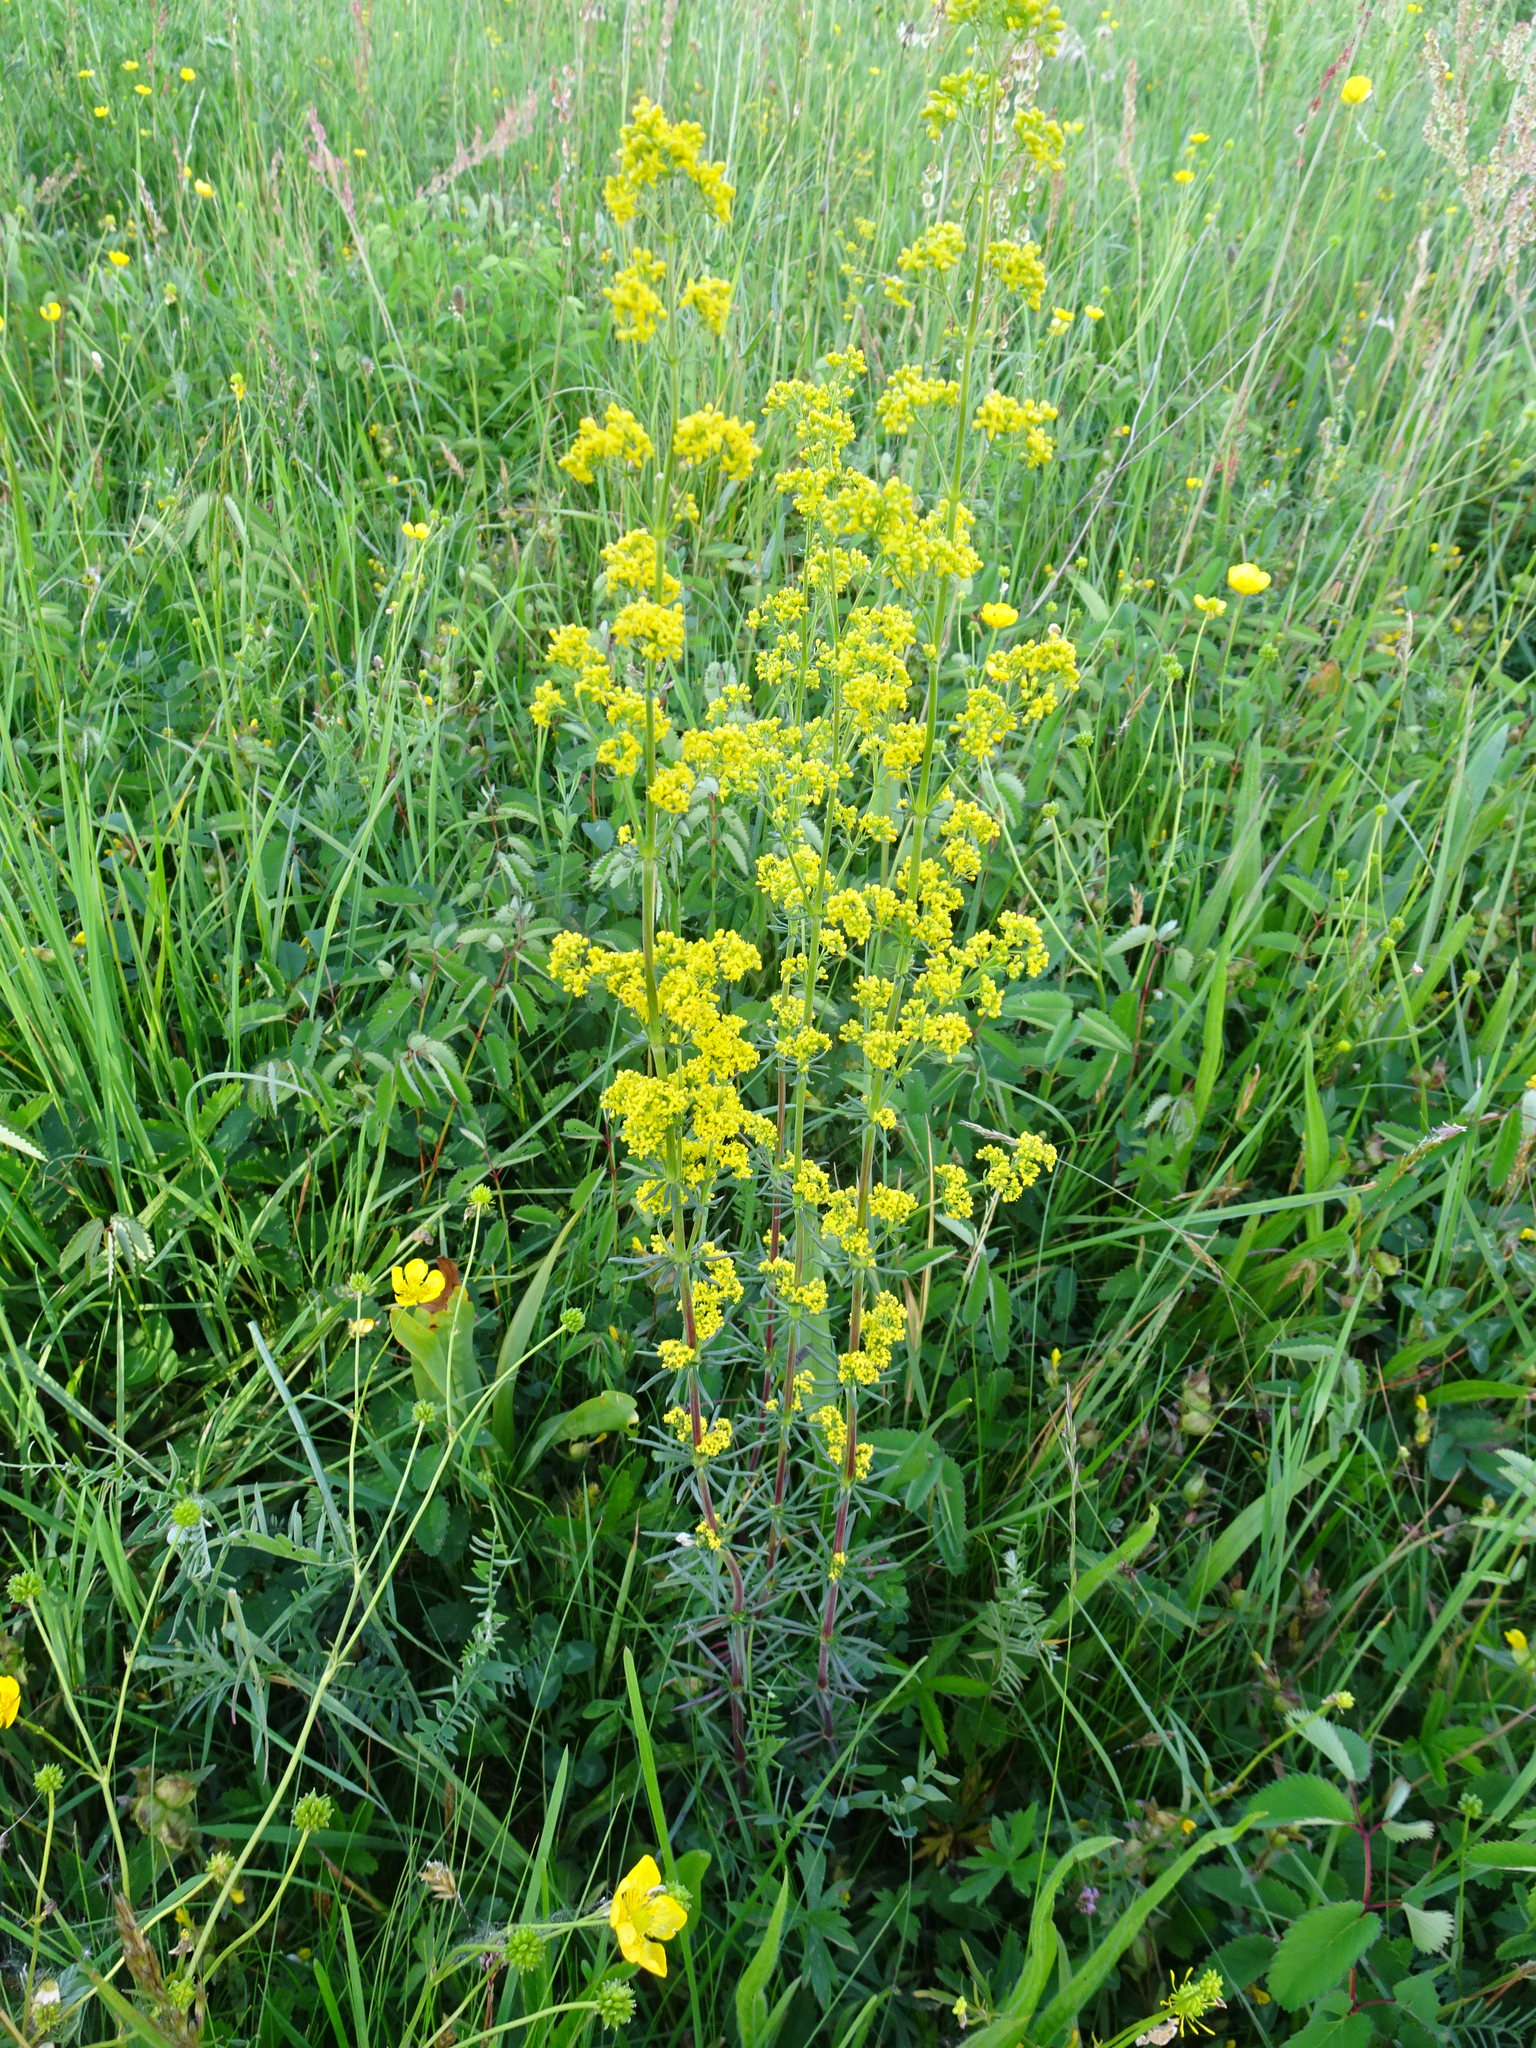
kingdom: Plantae
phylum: Tracheophyta
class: Magnoliopsida
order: Gentianales
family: Rubiaceae
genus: Galium
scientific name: Galium verum
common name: Lady's bedstraw
